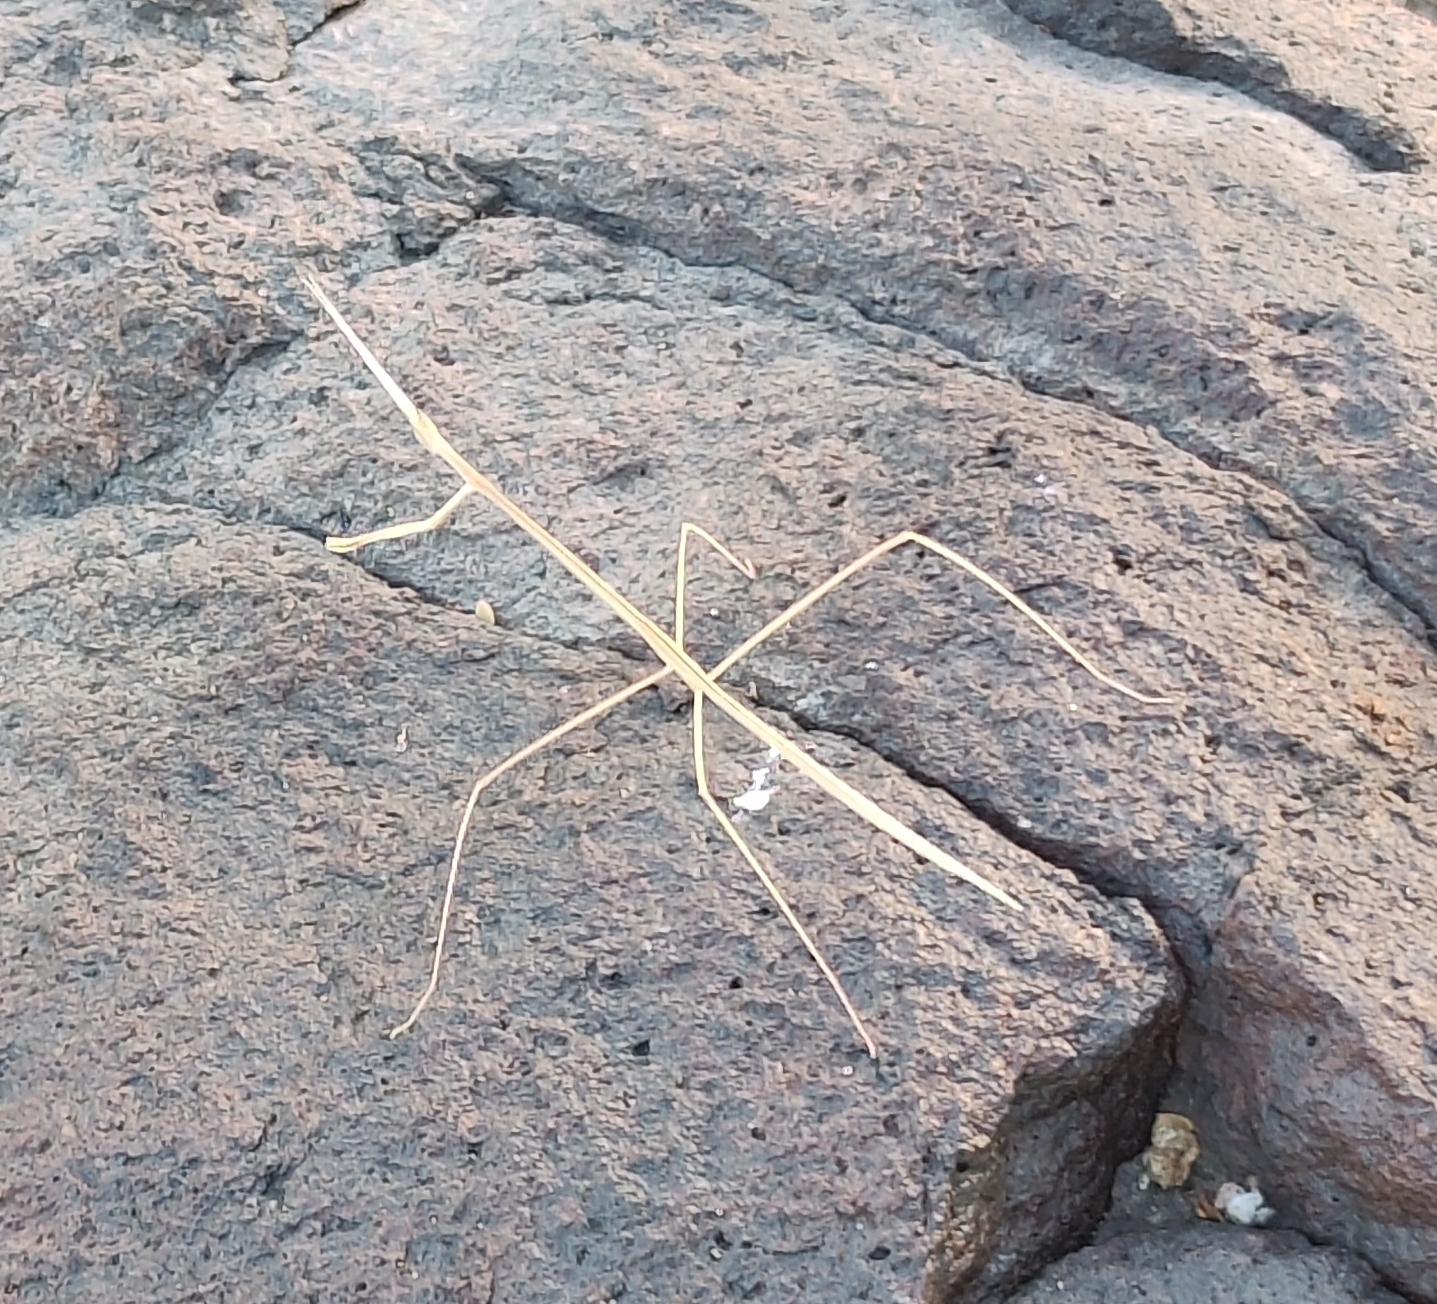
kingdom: Animalia
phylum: Arthropoda
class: Insecta
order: Mantodea
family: Eremiaphilidae
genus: Schizocephala
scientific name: Schizocephala bicornis
